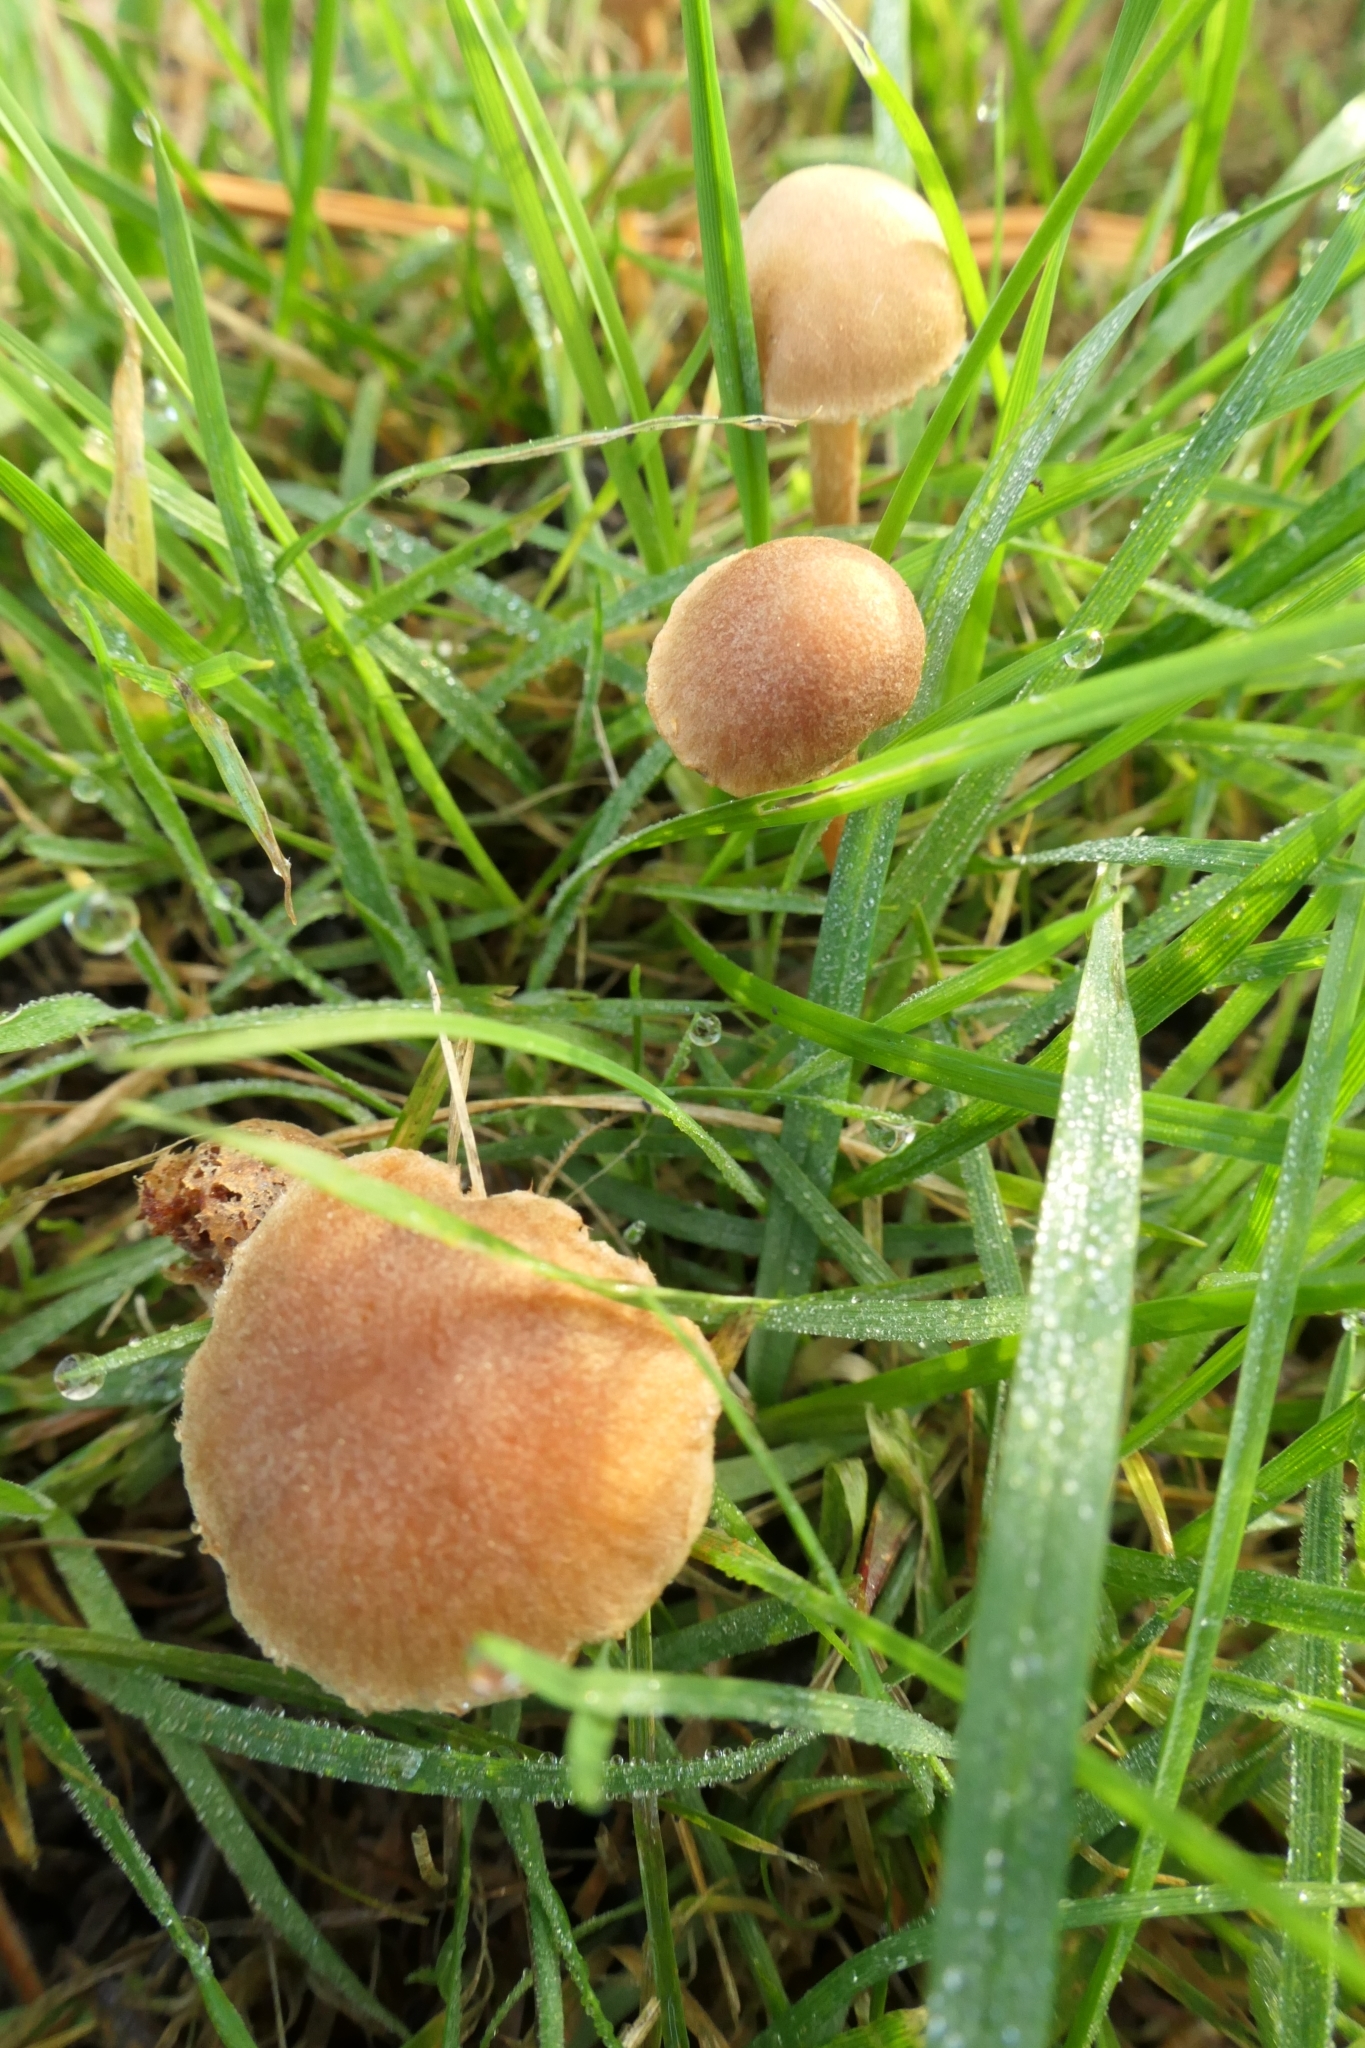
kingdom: Fungi
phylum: Basidiomycota
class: Agaricomycetes
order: Agaricales
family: Tubariaceae
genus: Tubaria
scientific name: Tubaria furfuracea
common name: Scurfy twiglet
